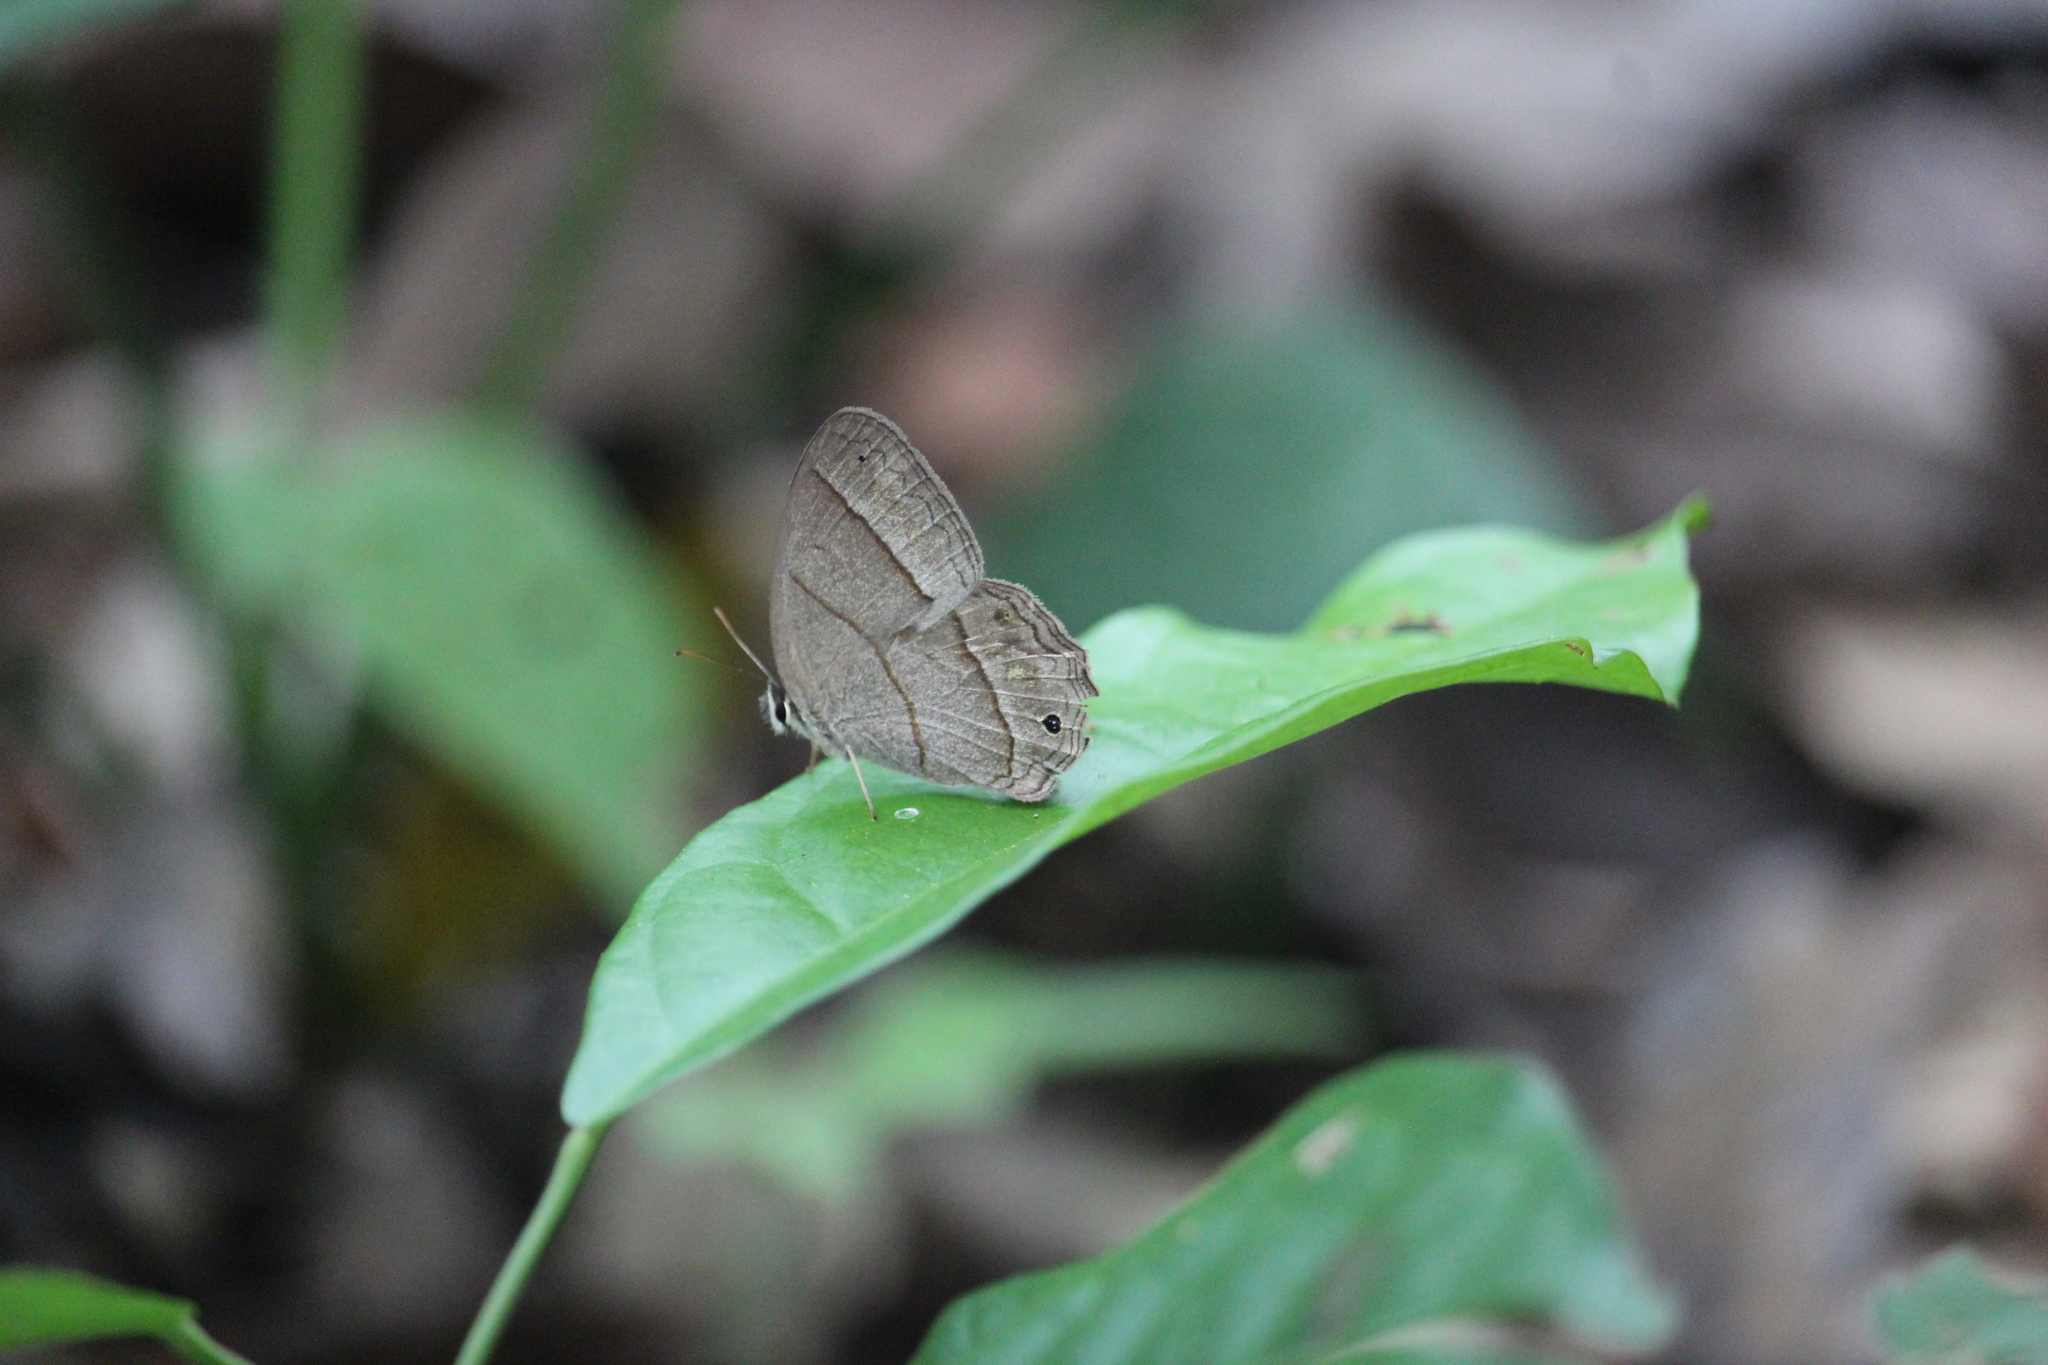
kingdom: Animalia
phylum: Arthropoda
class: Insecta
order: Lepidoptera
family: Nymphalidae
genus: Euptychia
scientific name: Euptychia Cissia pompilia
